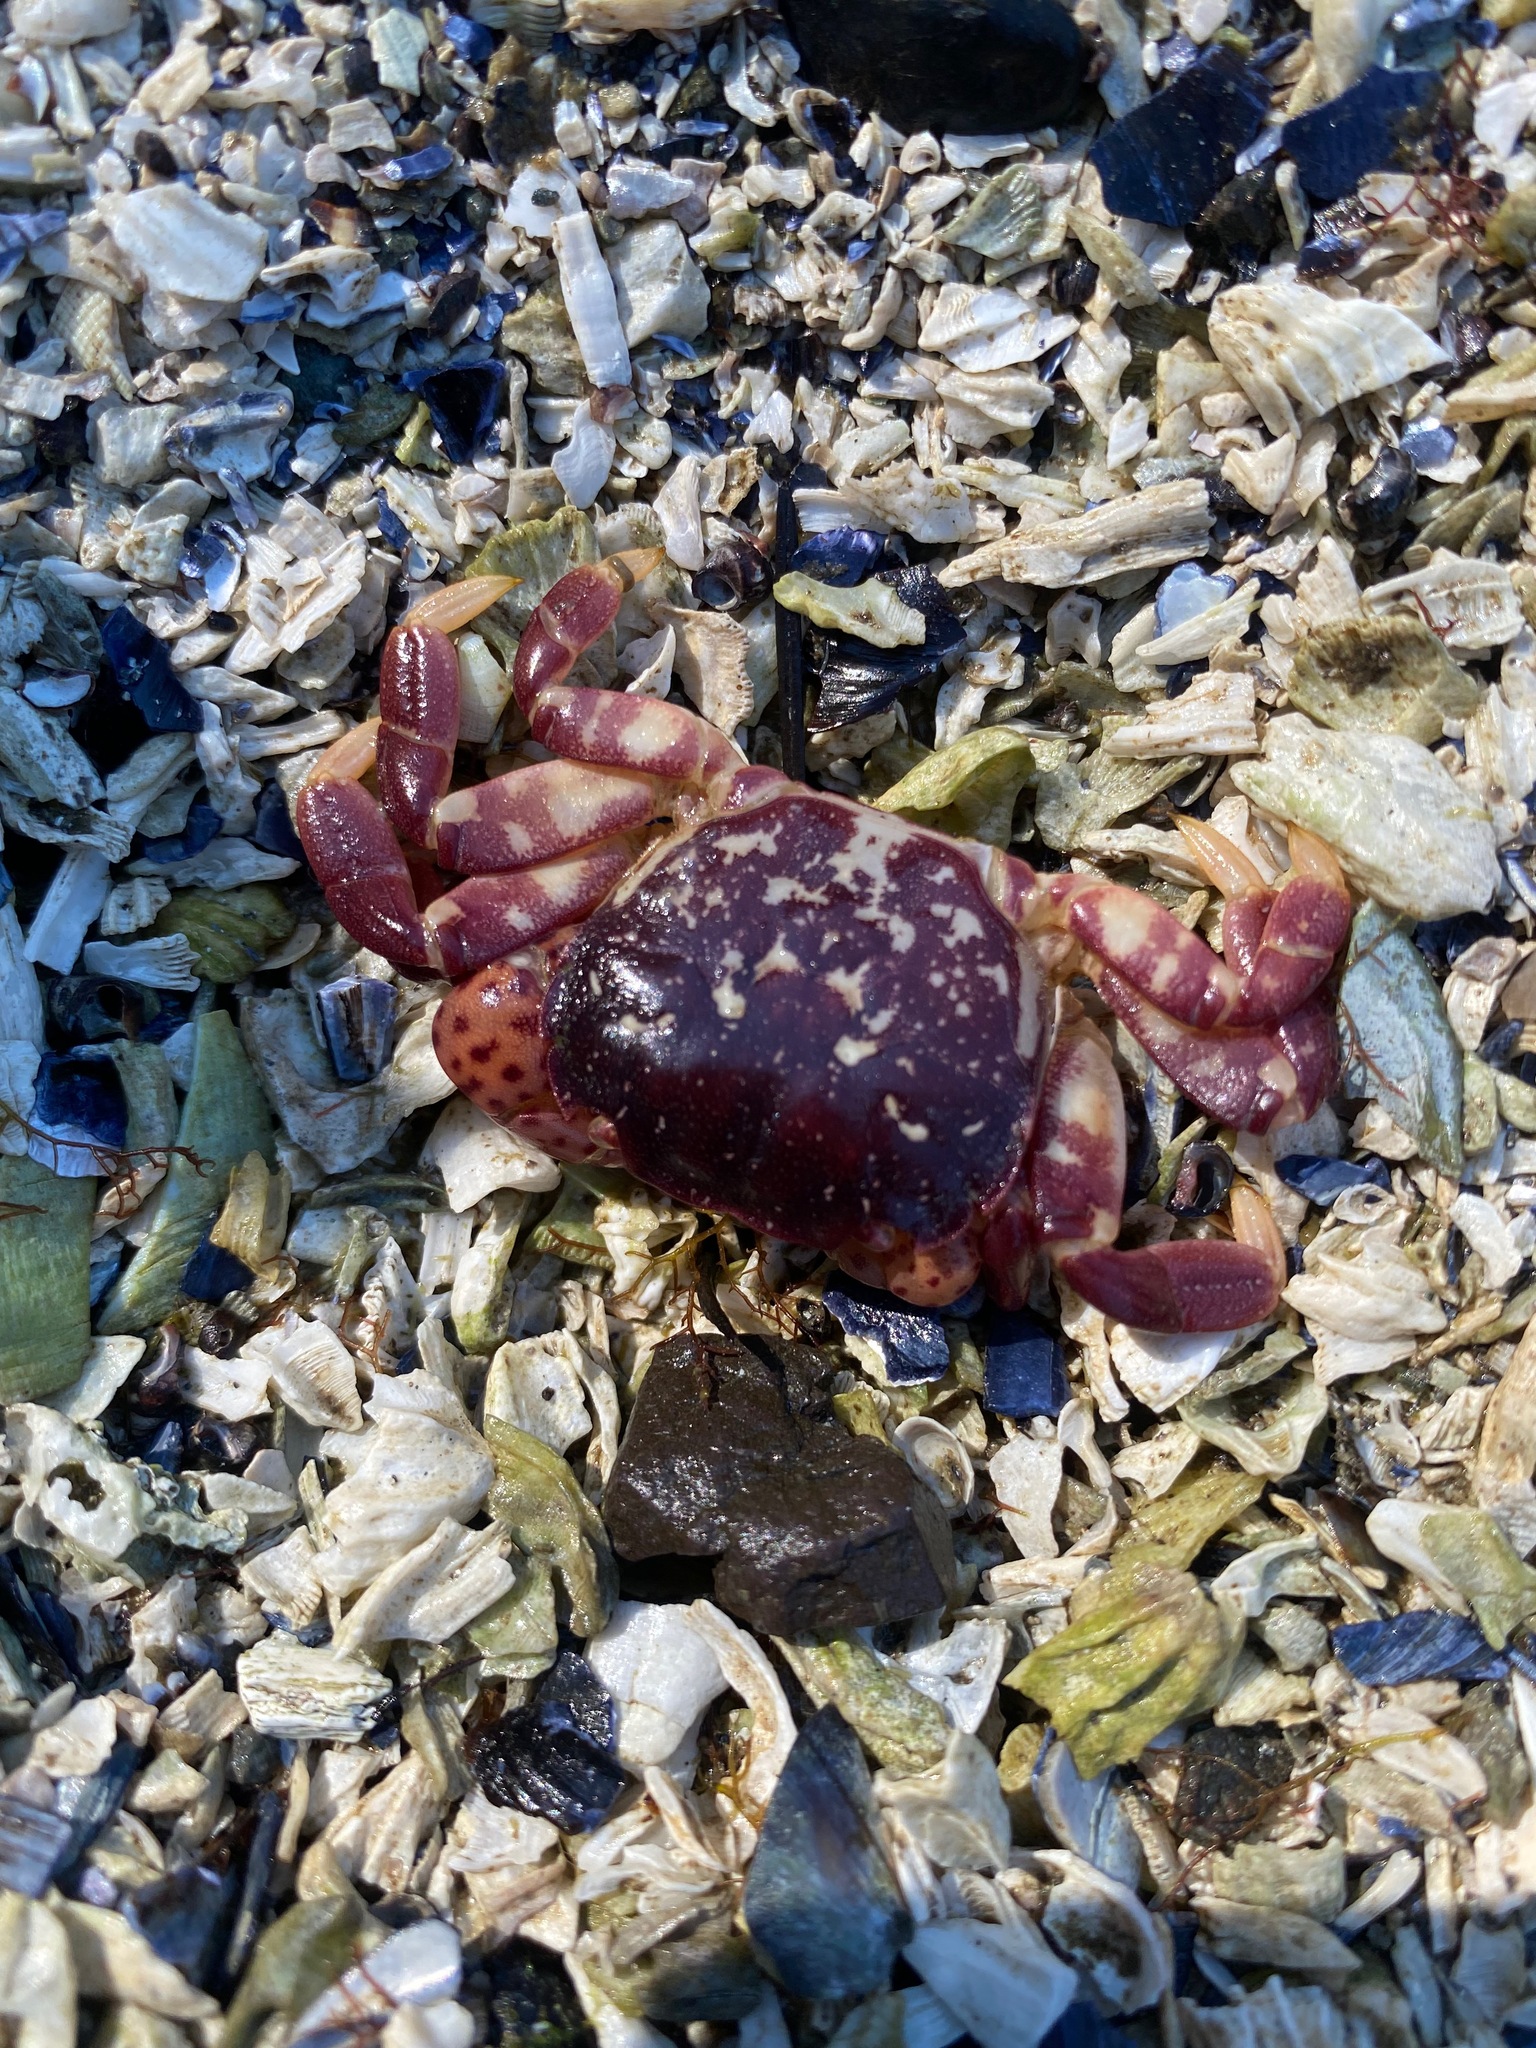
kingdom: Animalia
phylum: Arthropoda
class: Malacostraca
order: Decapoda
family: Varunidae
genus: Hemigrapsus
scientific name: Hemigrapsus nudus
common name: Purple shore crab
